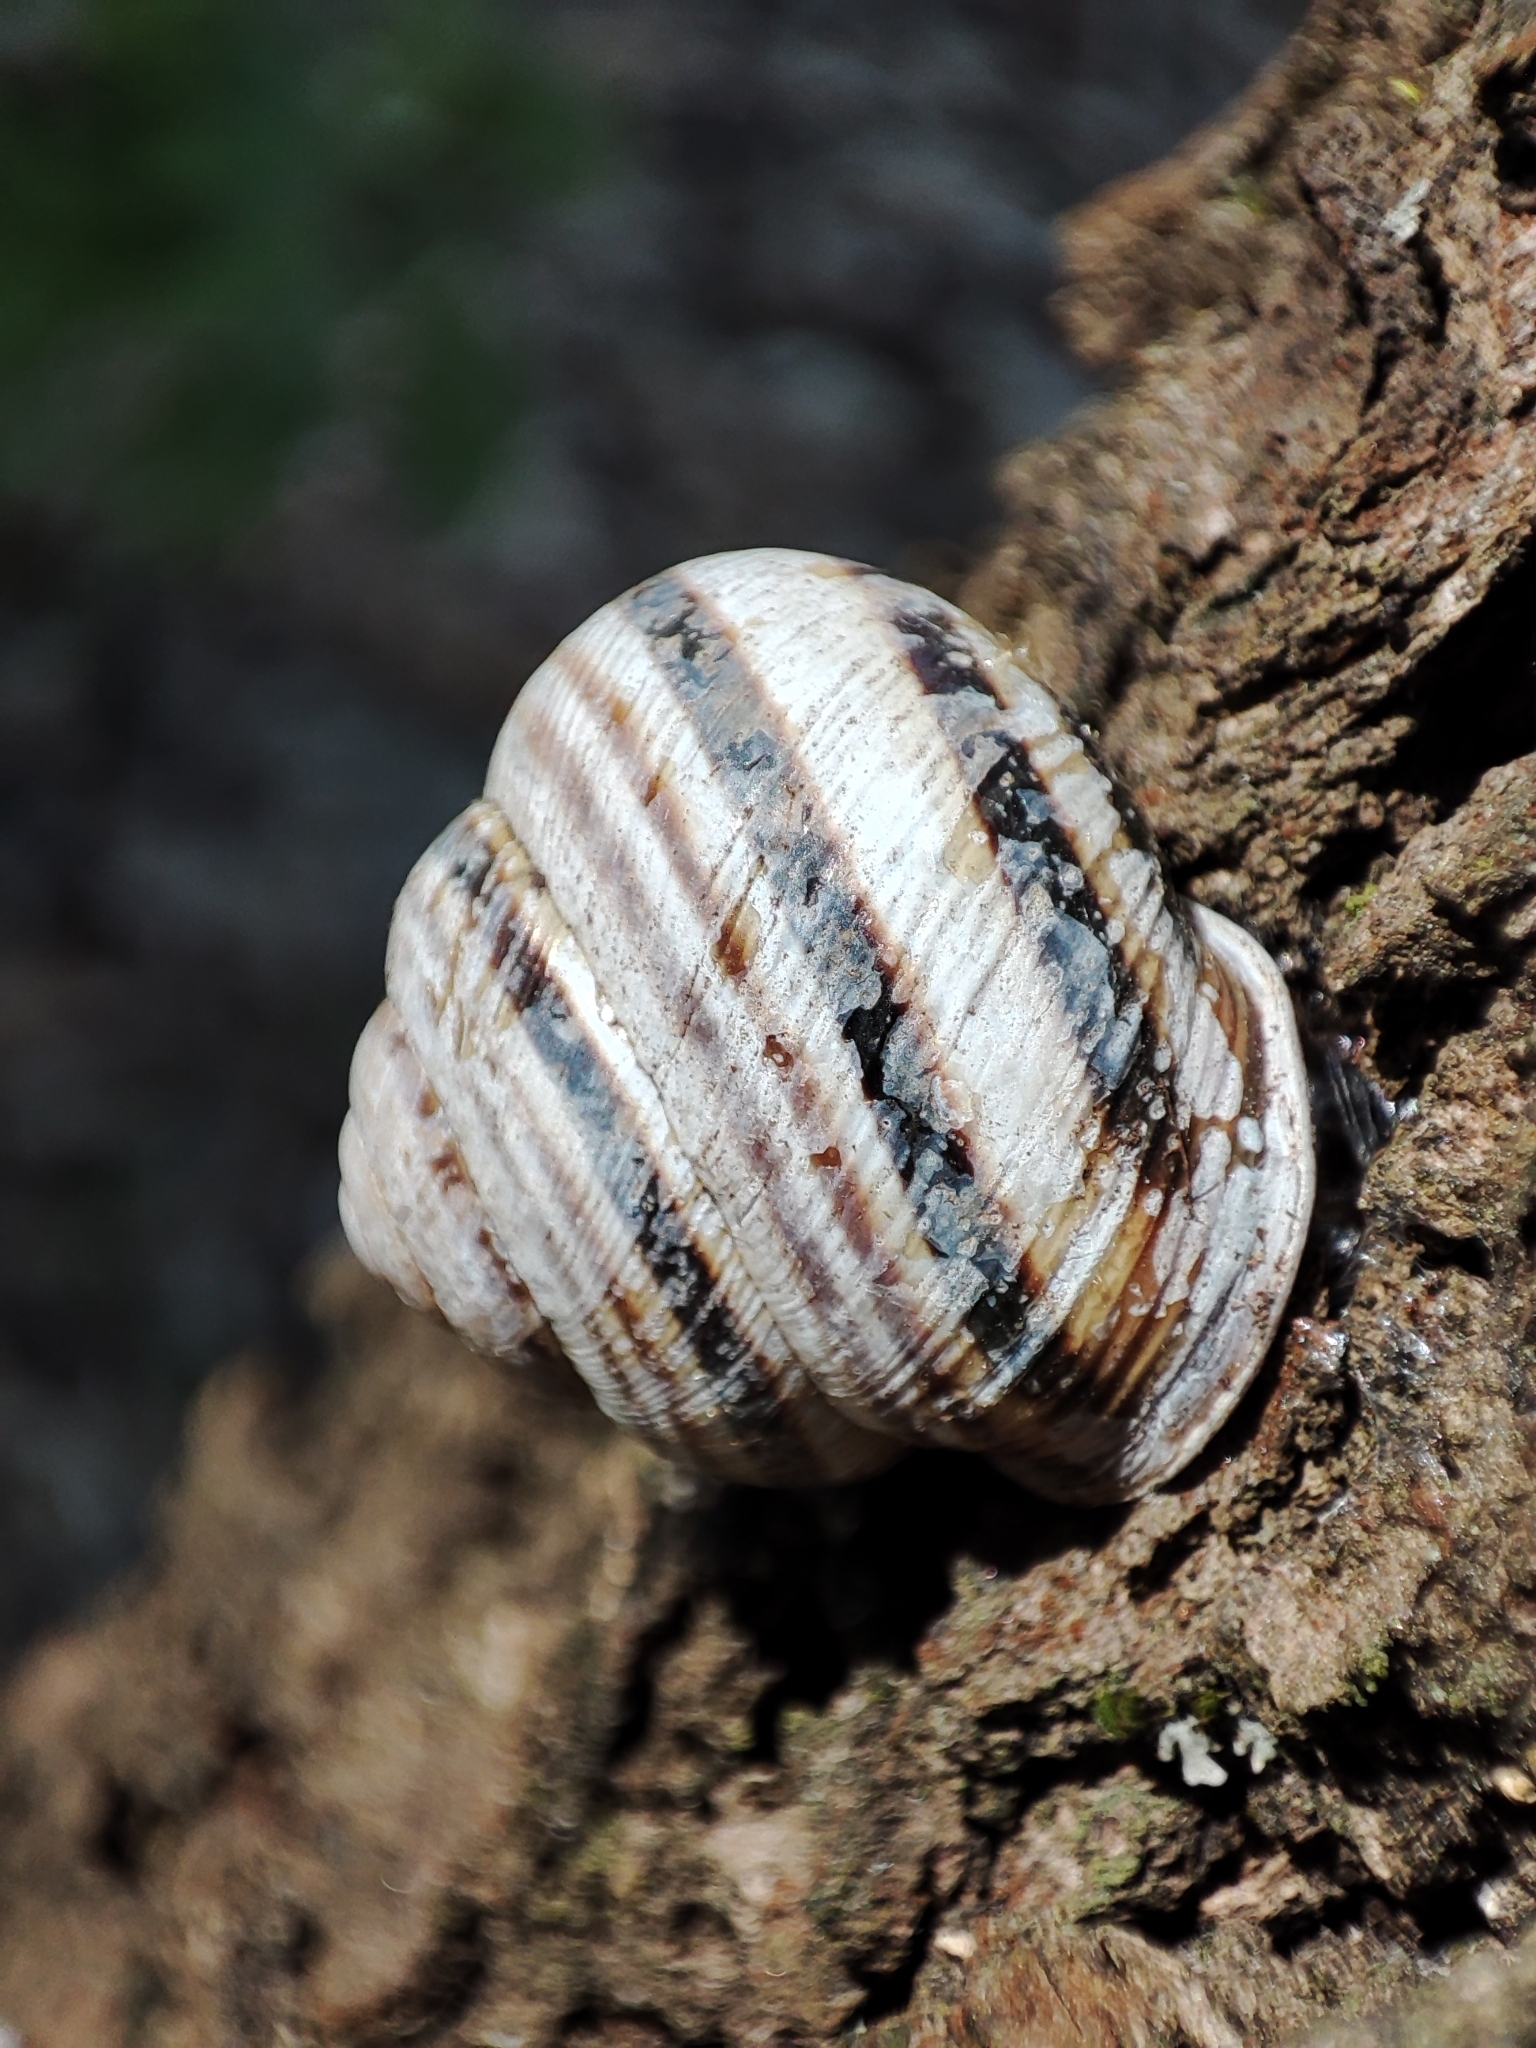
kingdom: Animalia
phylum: Mollusca
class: Gastropoda
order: Stylommatophora
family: Helicidae
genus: Caucasotachea
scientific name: Caucasotachea vindobonensis
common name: European helicid land snail
